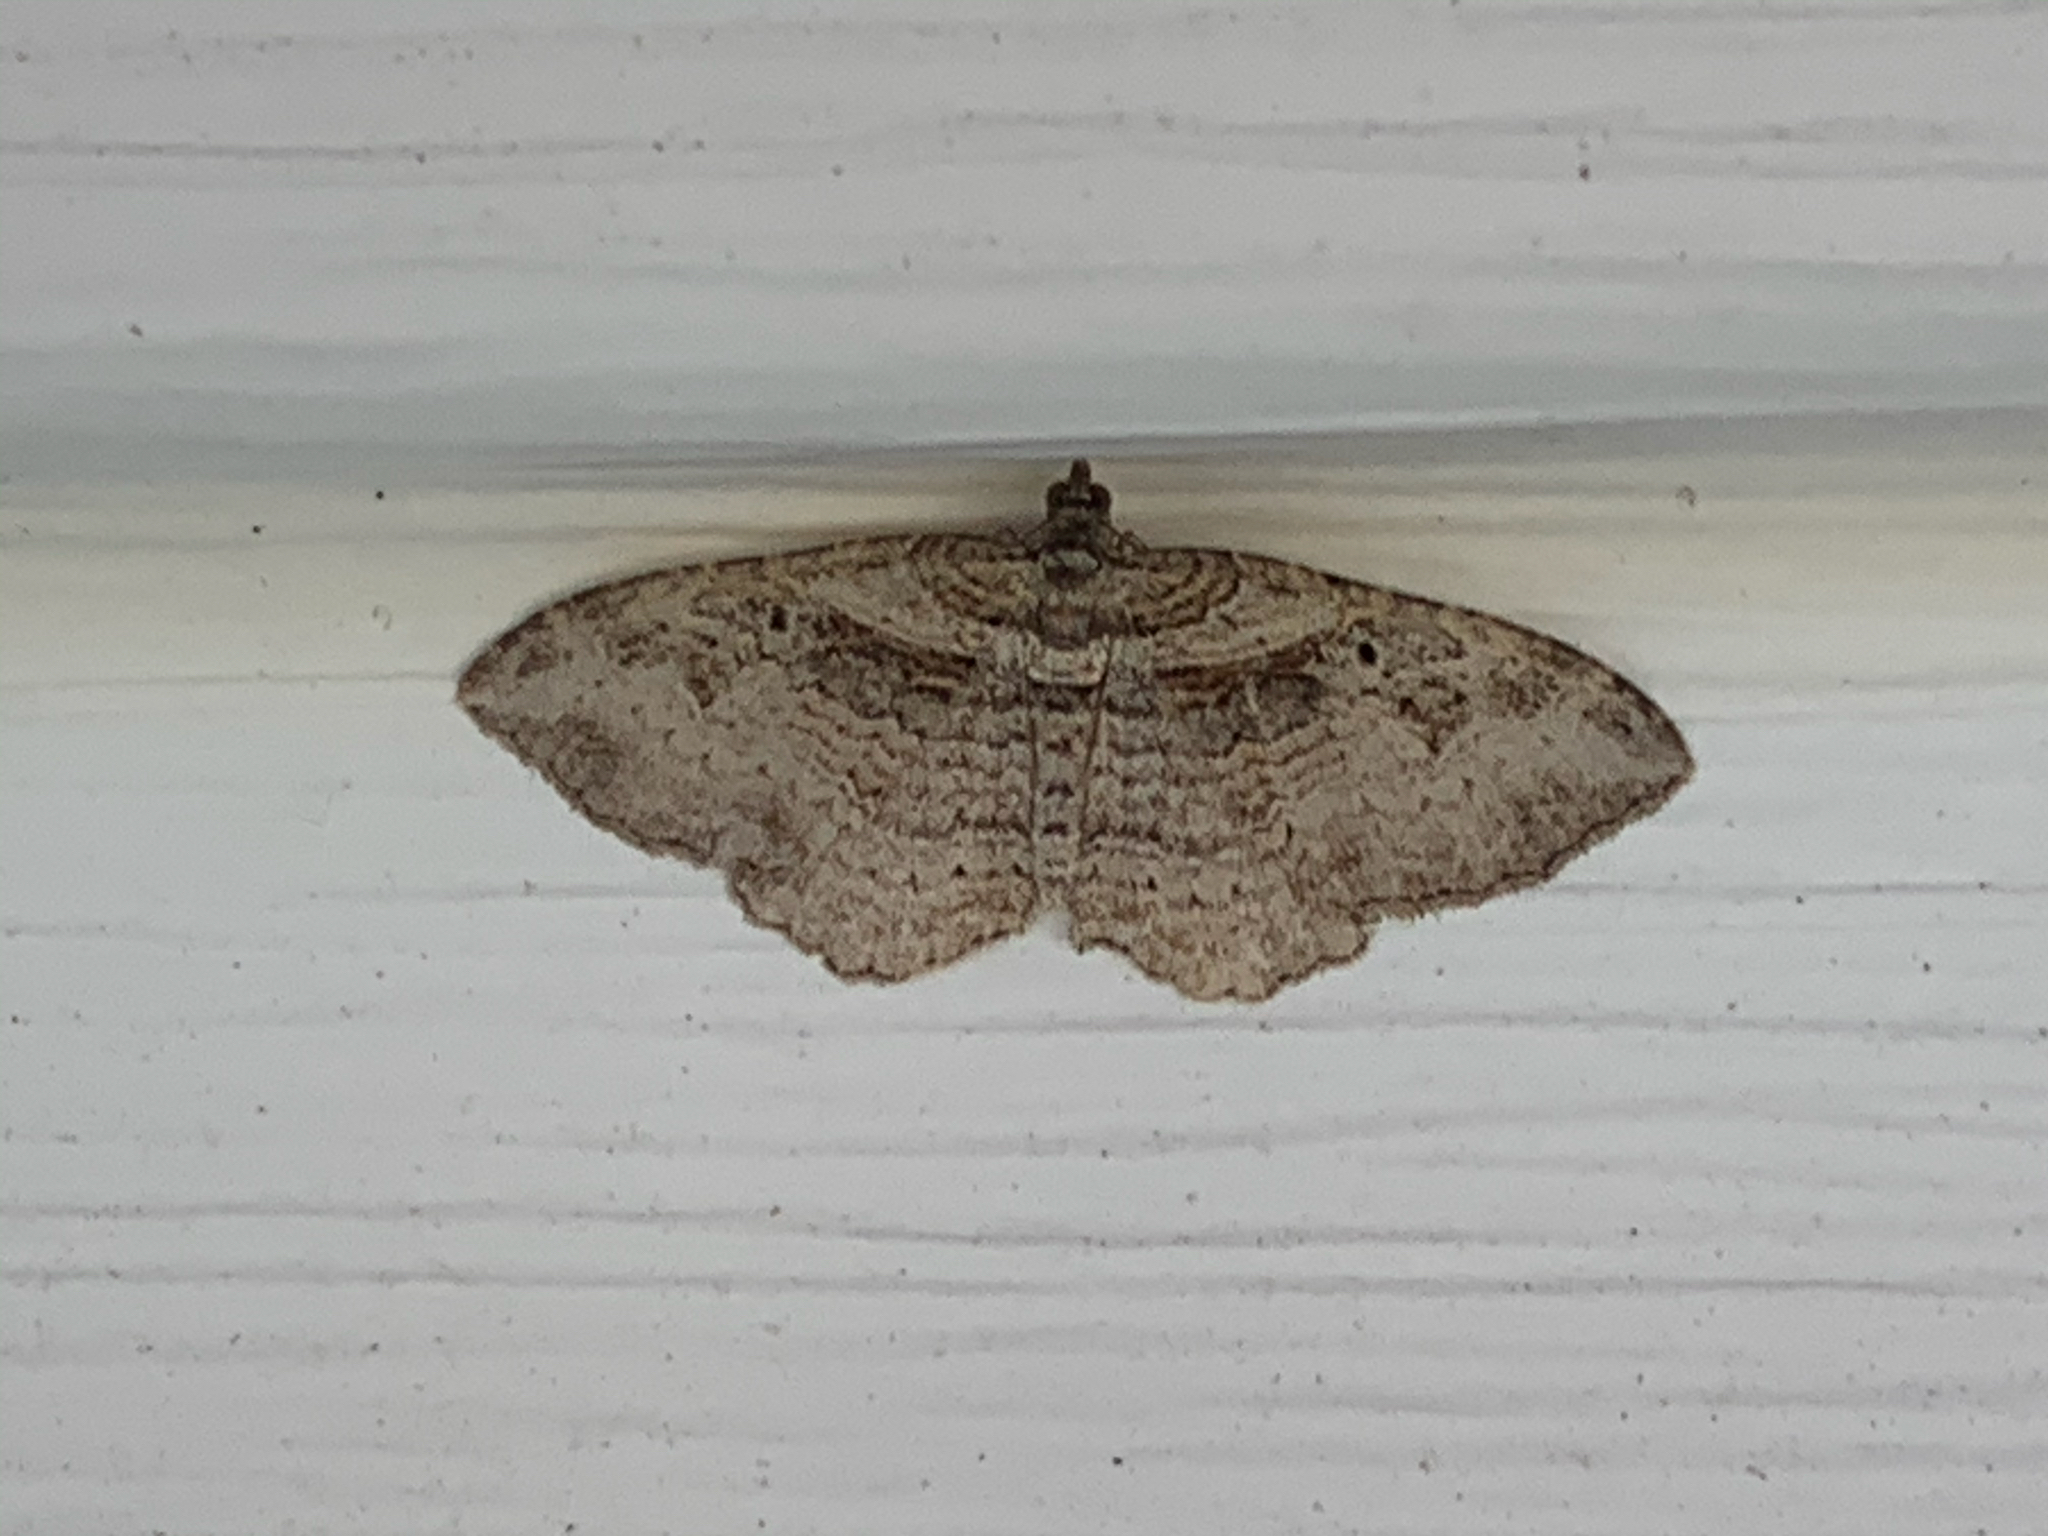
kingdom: Animalia
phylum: Arthropoda
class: Insecta
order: Lepidoptera
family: Geometridae
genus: Costaconvexa
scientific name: Costaconvexa centrostrigaria
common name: Bent-line carpet
